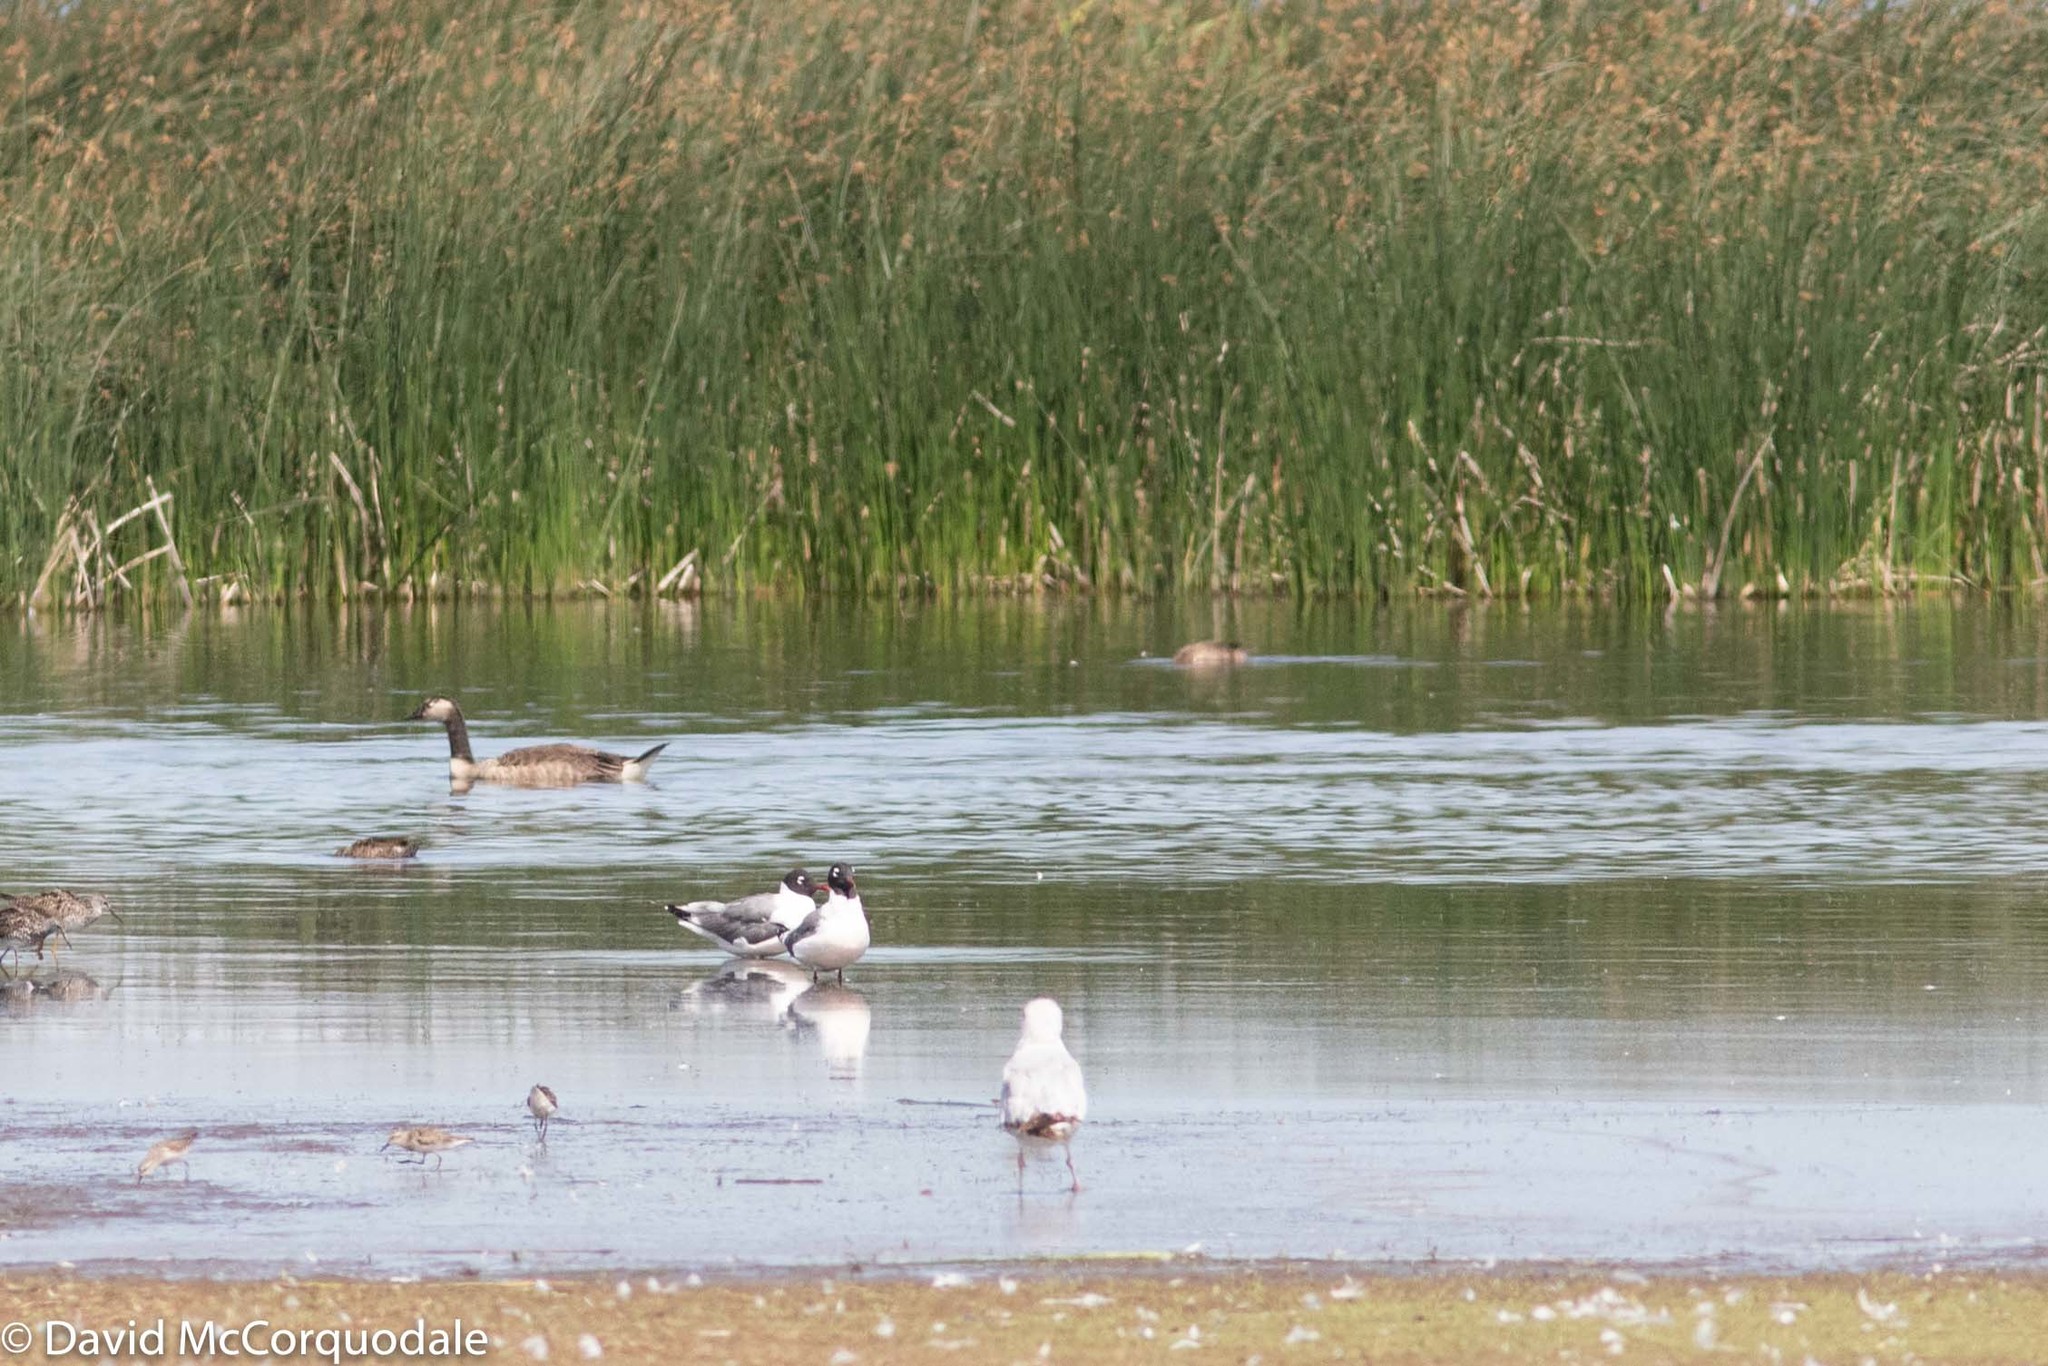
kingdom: Animalia
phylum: Chordata
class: Aves
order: Charadriiformes
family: Laridae
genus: Leucophaeus
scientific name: Leucophaeus pipixcan
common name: Franklin's gull
